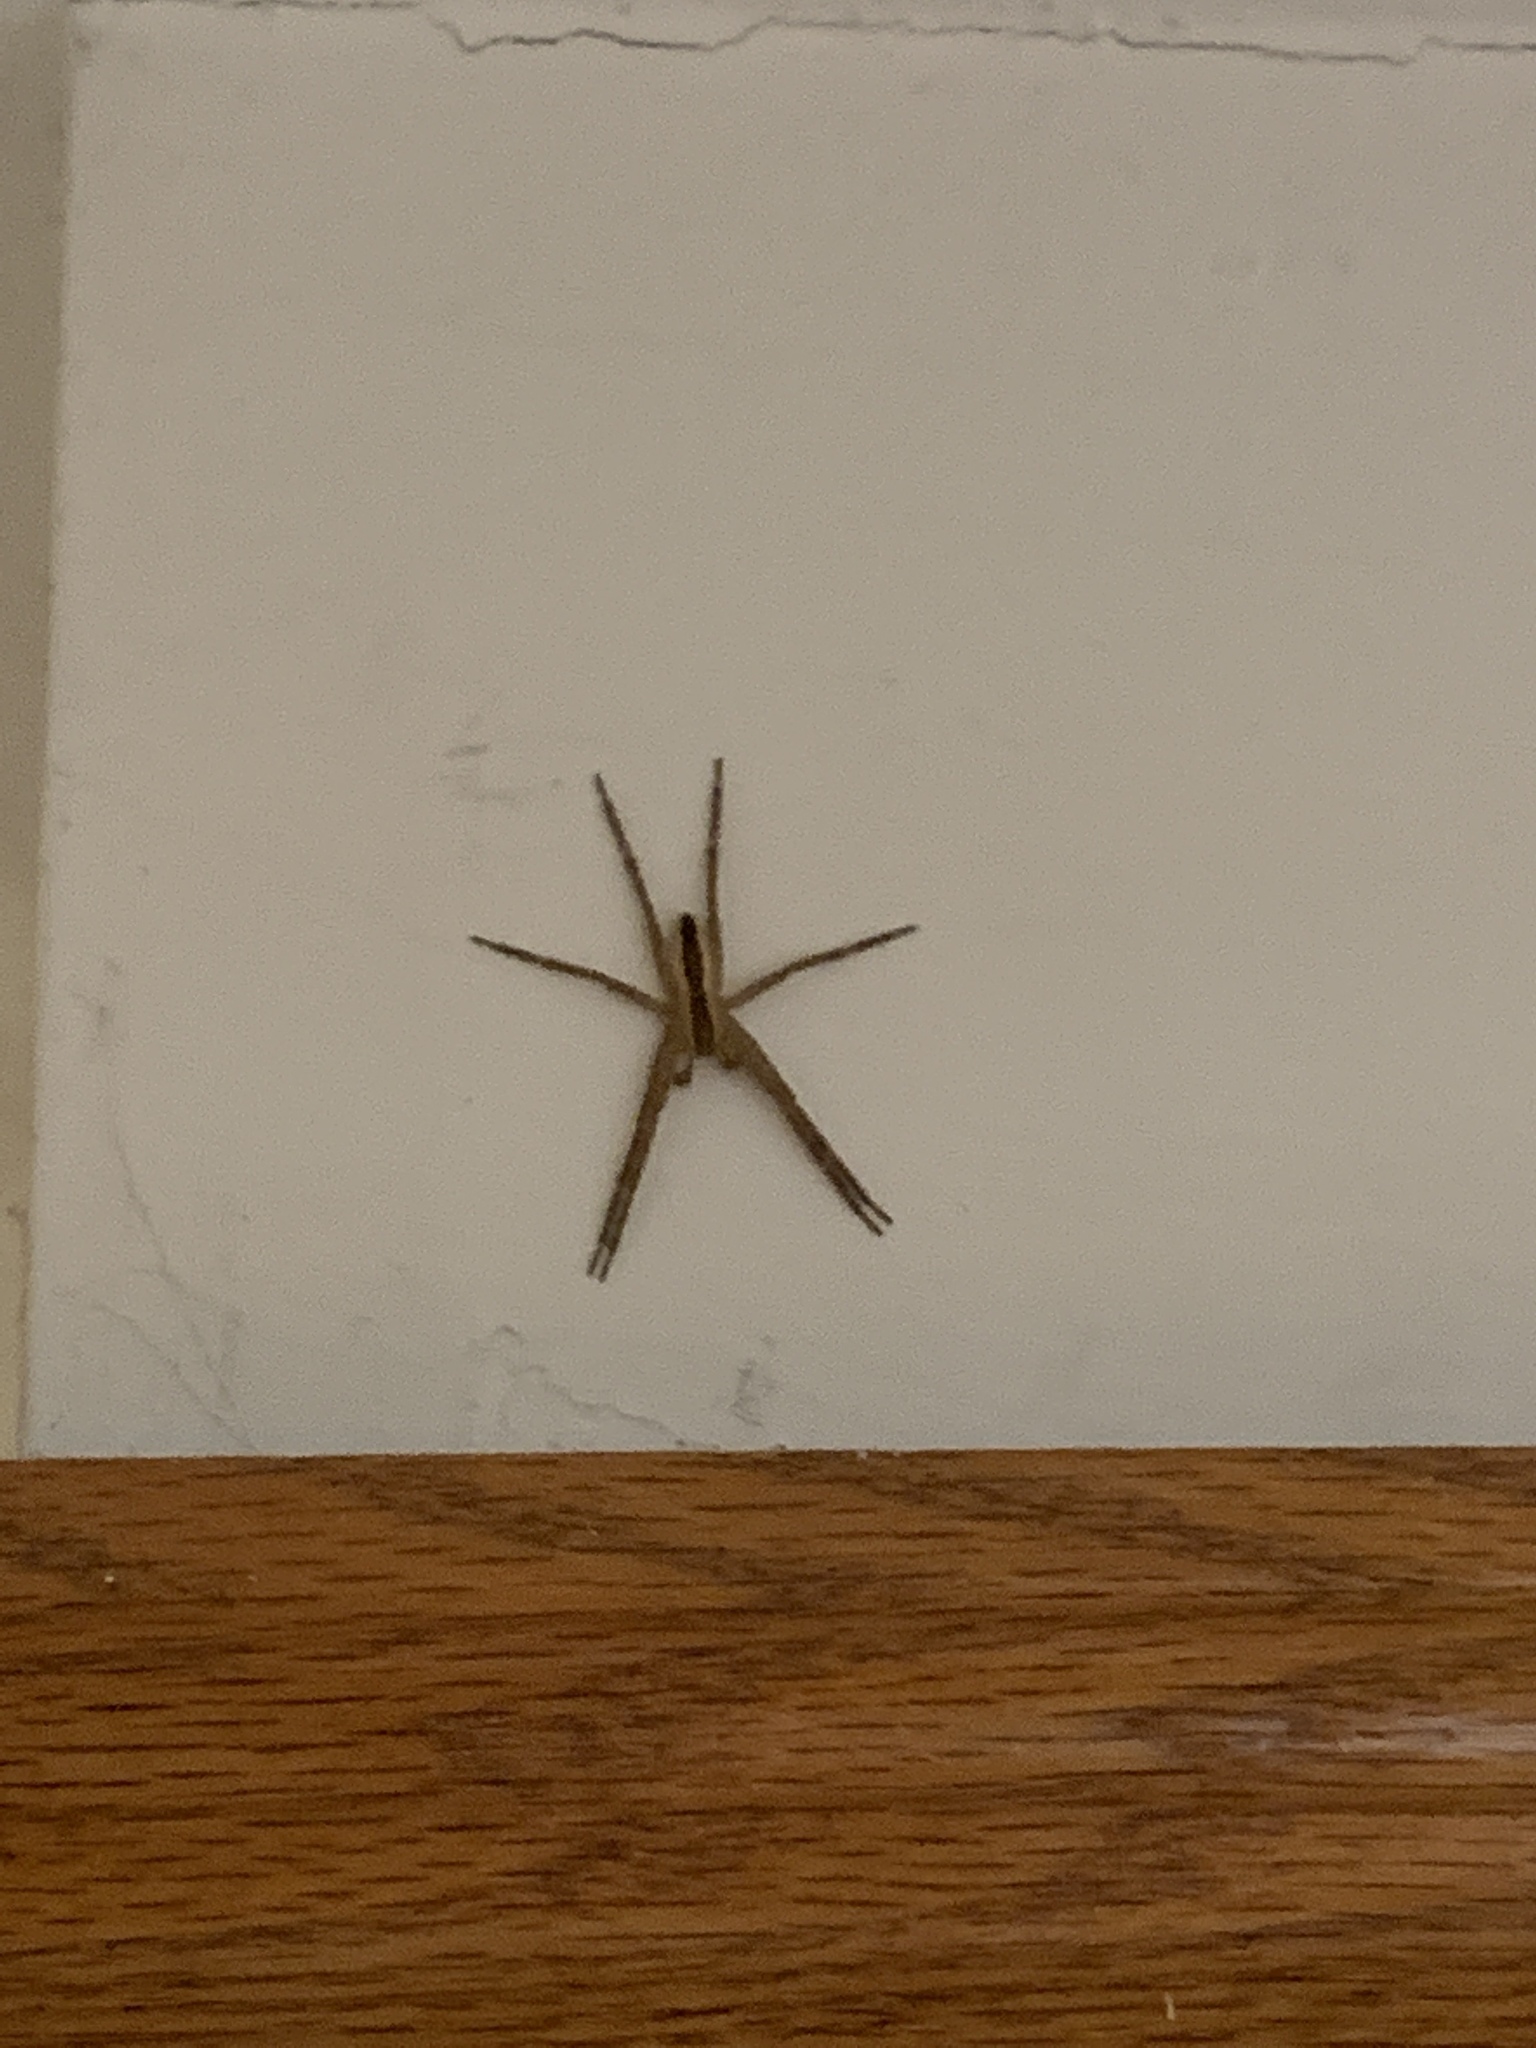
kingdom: Animalia
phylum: Arthropoda
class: Arachnida
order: Araneae
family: Pisauridae
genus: Pisaurina
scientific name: Pisaurina mira
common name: American nursery web spider
